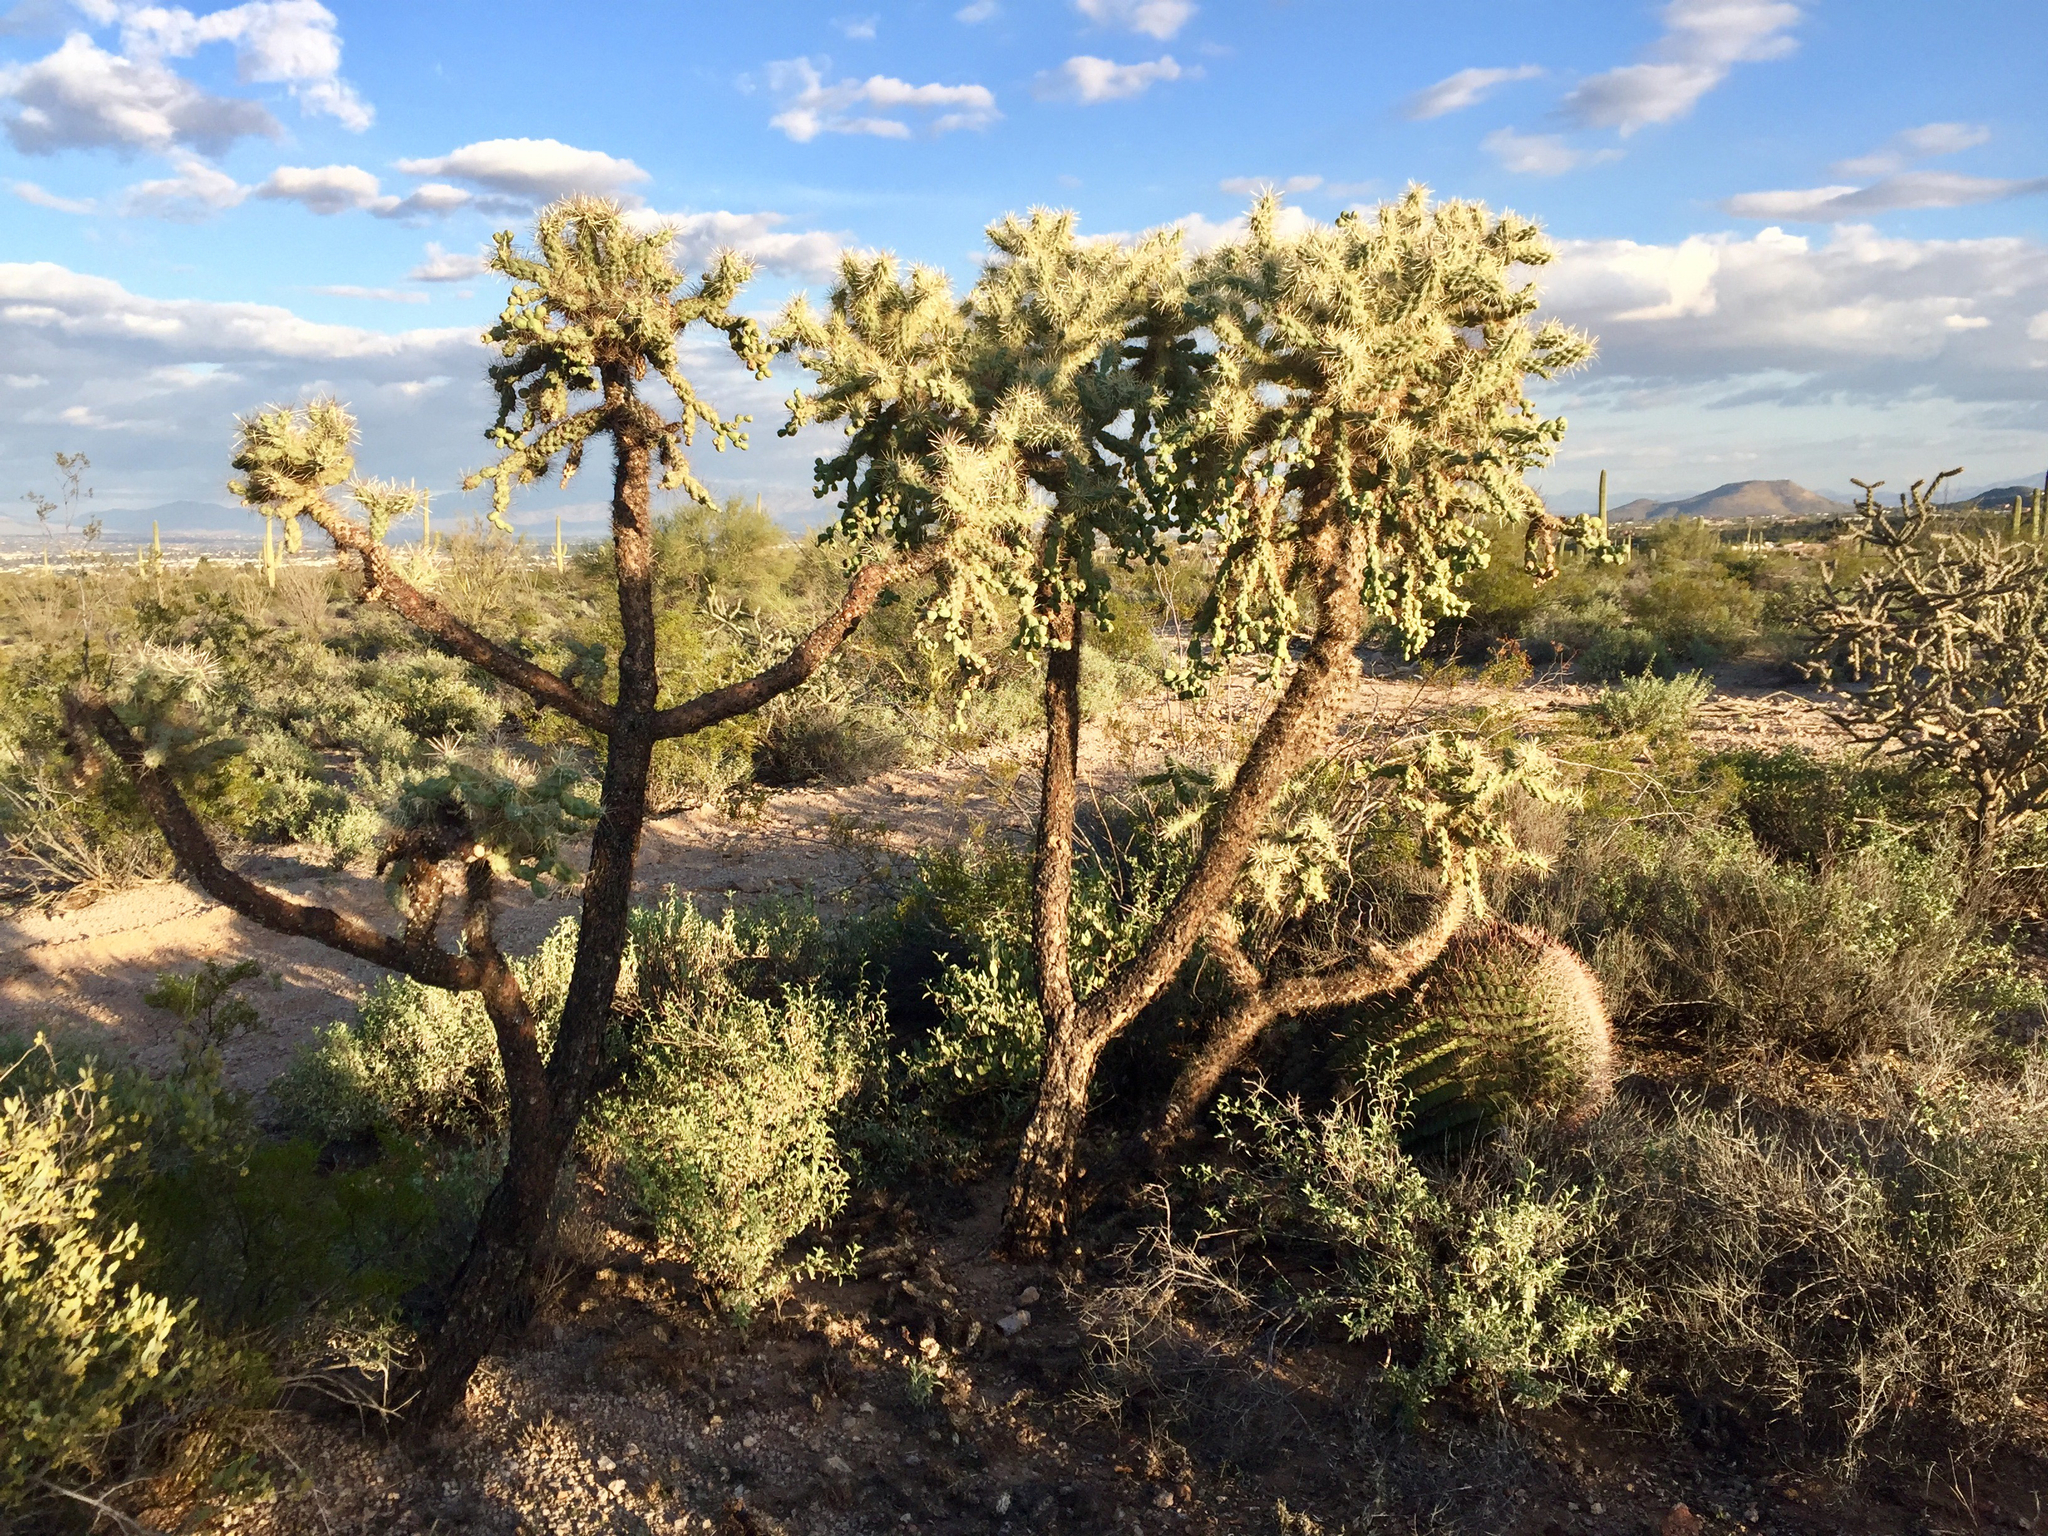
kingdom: Plantae
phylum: Tracheophyta
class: Magnoliopsida
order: Caryophyllales
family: Cactaceae
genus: Cylindropuntia
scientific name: Cylindropuntia fulgida
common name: Jumping cholla
